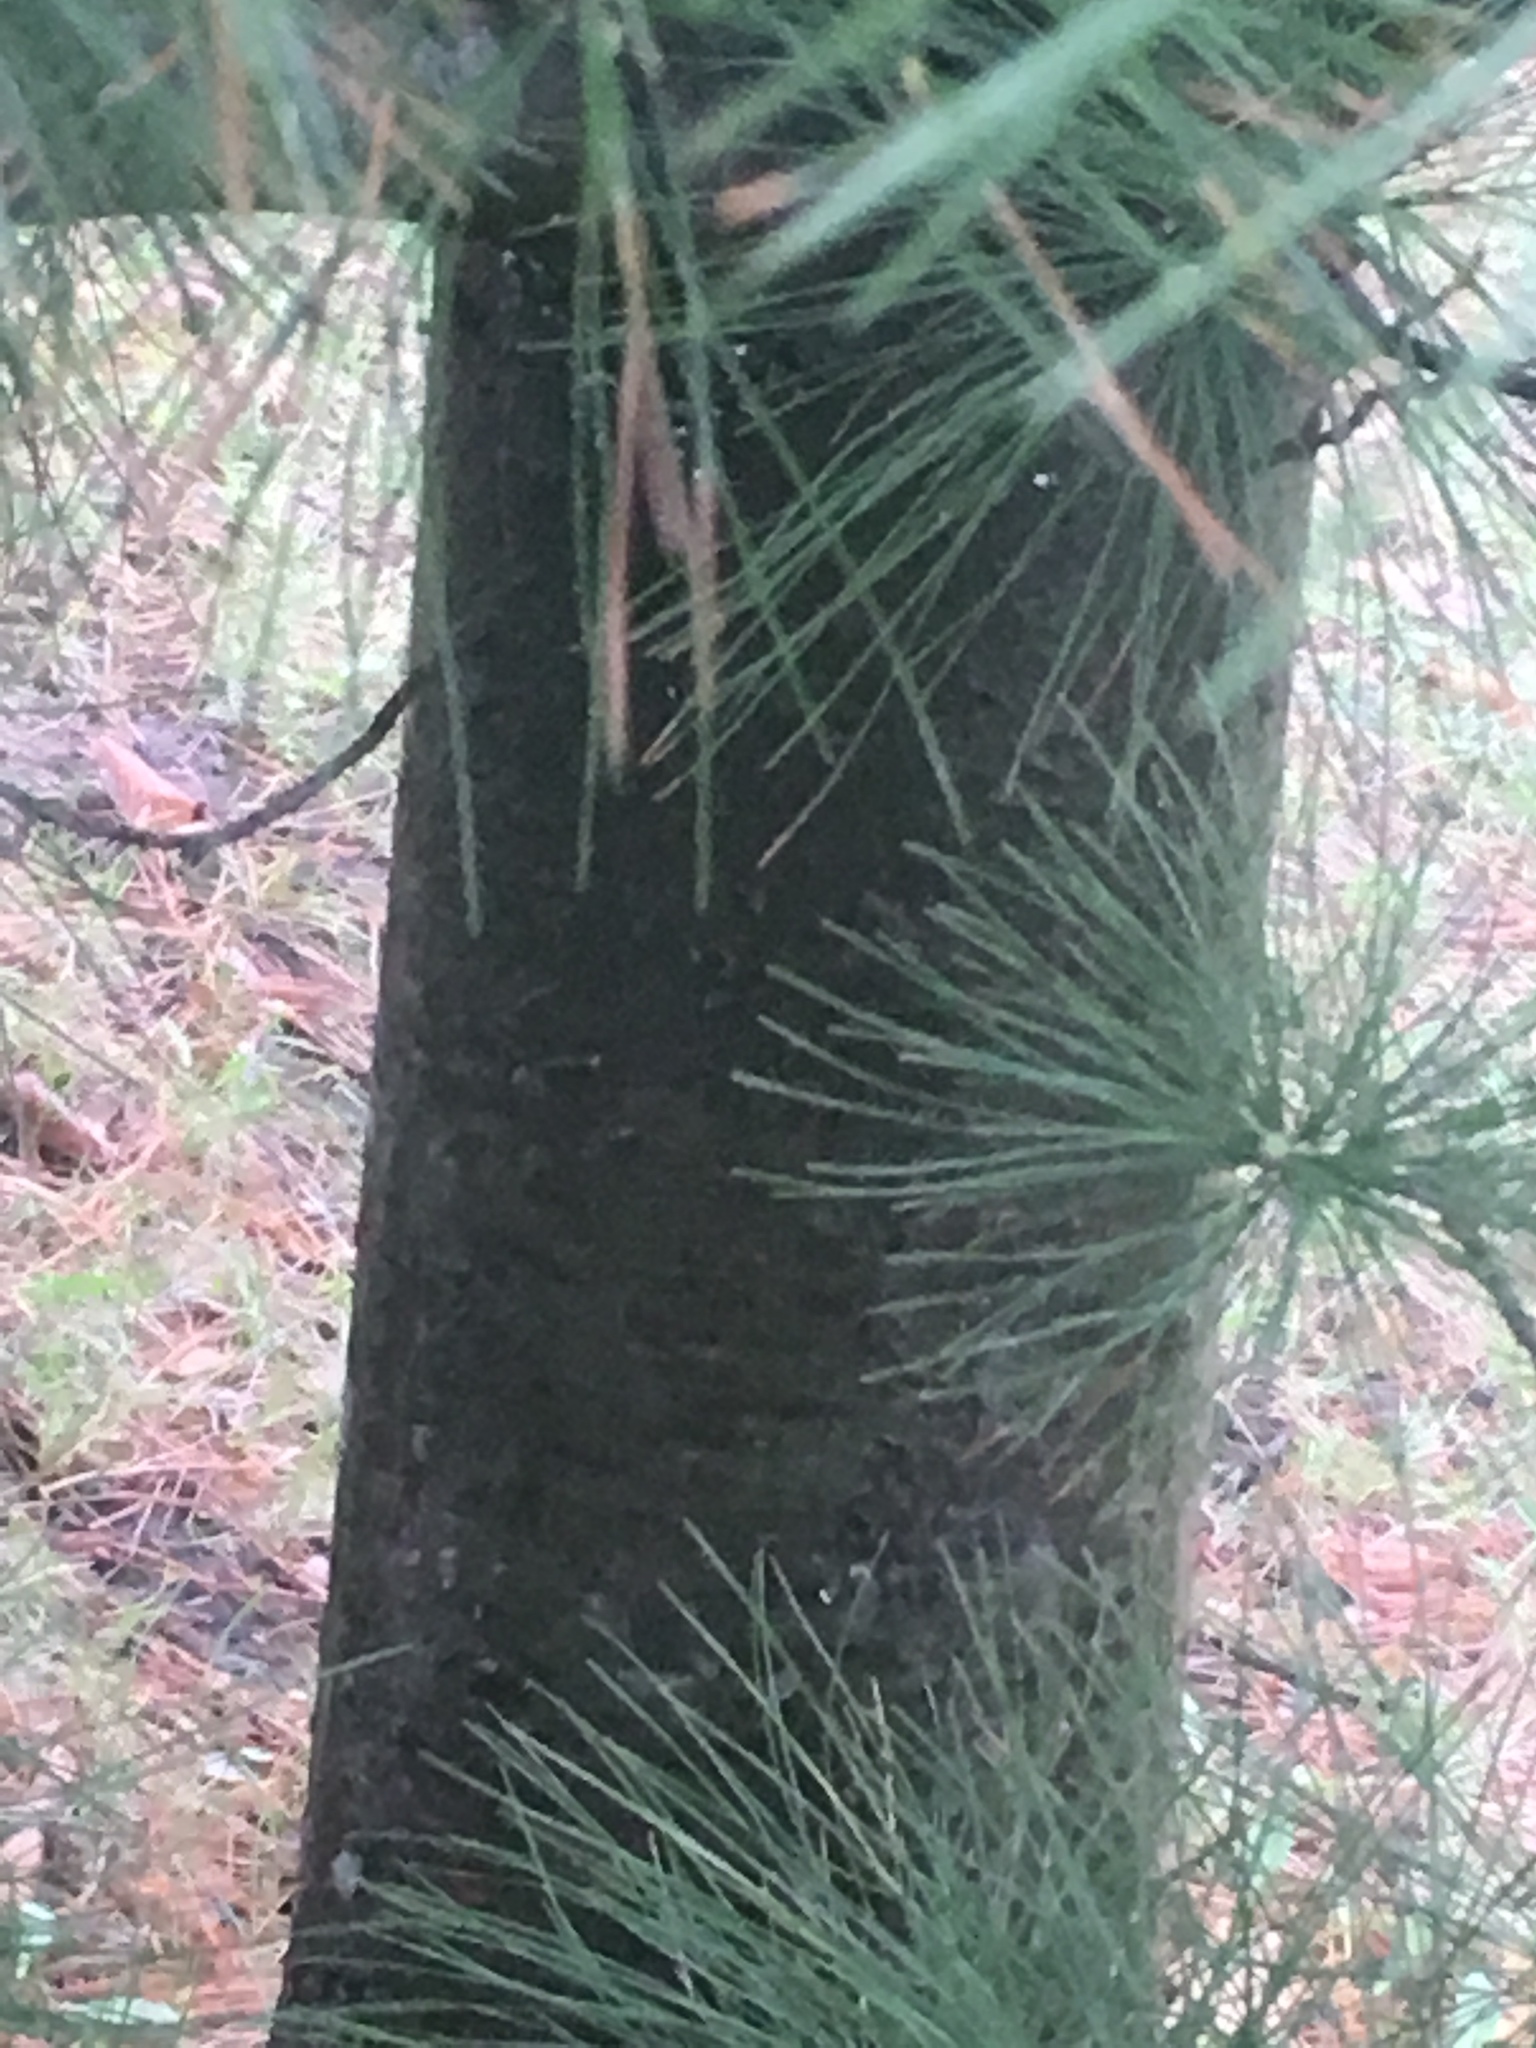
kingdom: Plantae
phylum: Tracheophyta
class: Pinopsida
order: Pinales
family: Pinaceae
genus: Pinus
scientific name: Pinus strobus
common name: Weymouth pine
